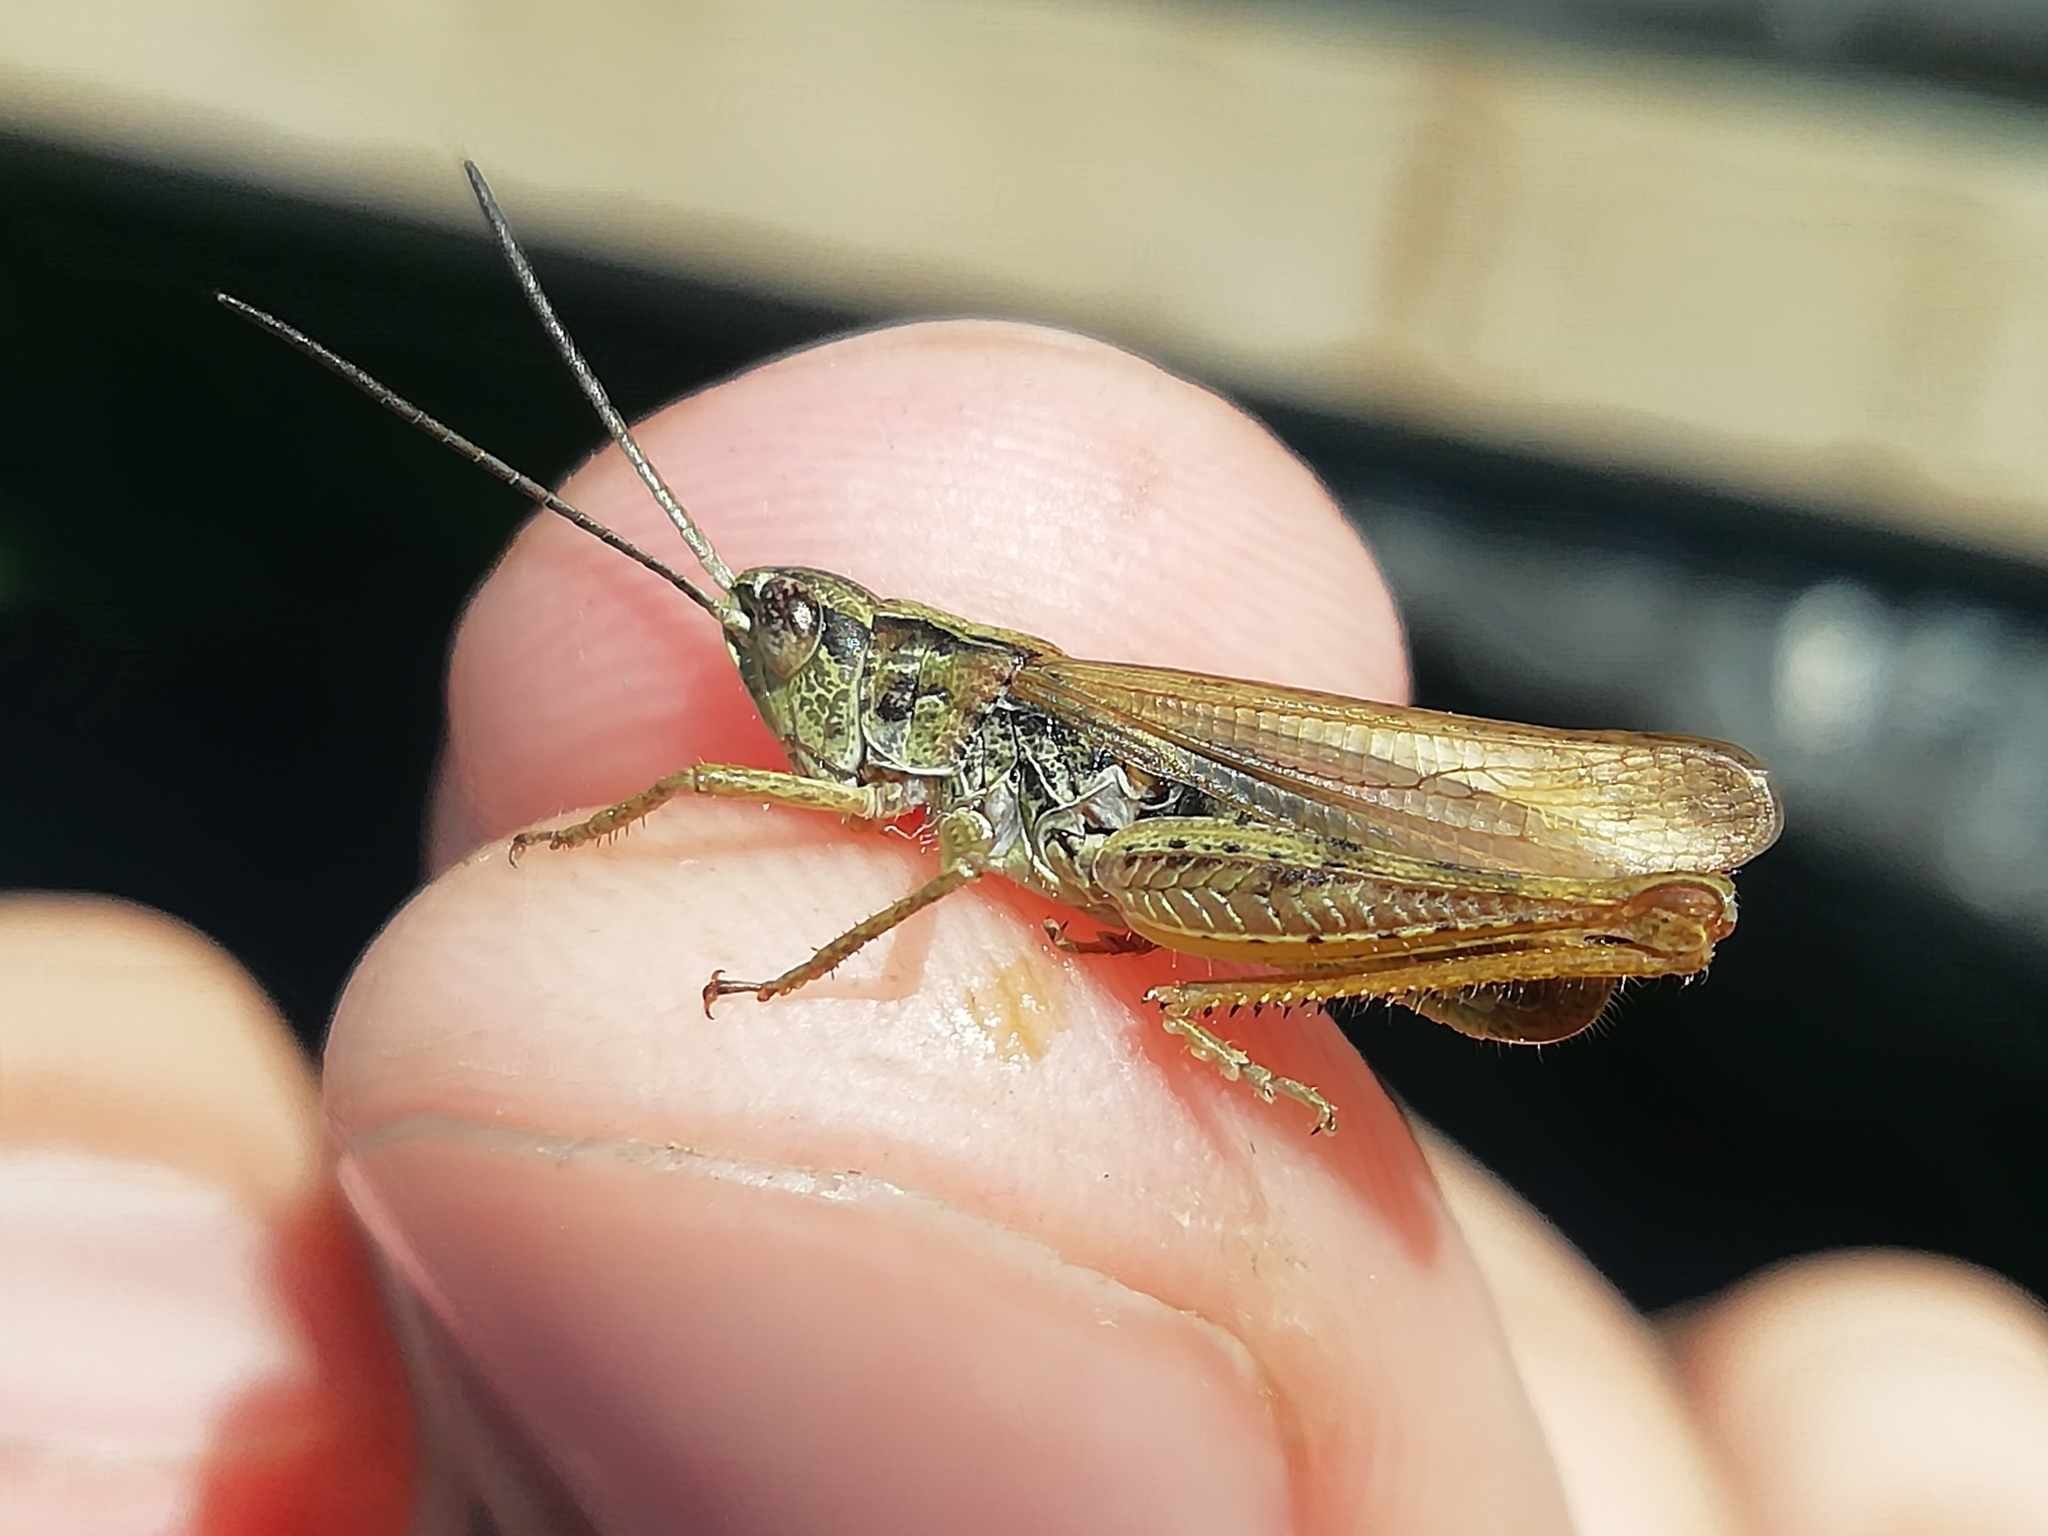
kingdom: Animalia
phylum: Arthropoda
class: Insecta
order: Orthoptera
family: Acrididae
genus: Chorthippus
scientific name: Chorthippus apricarius
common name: Upland field grasshopper
